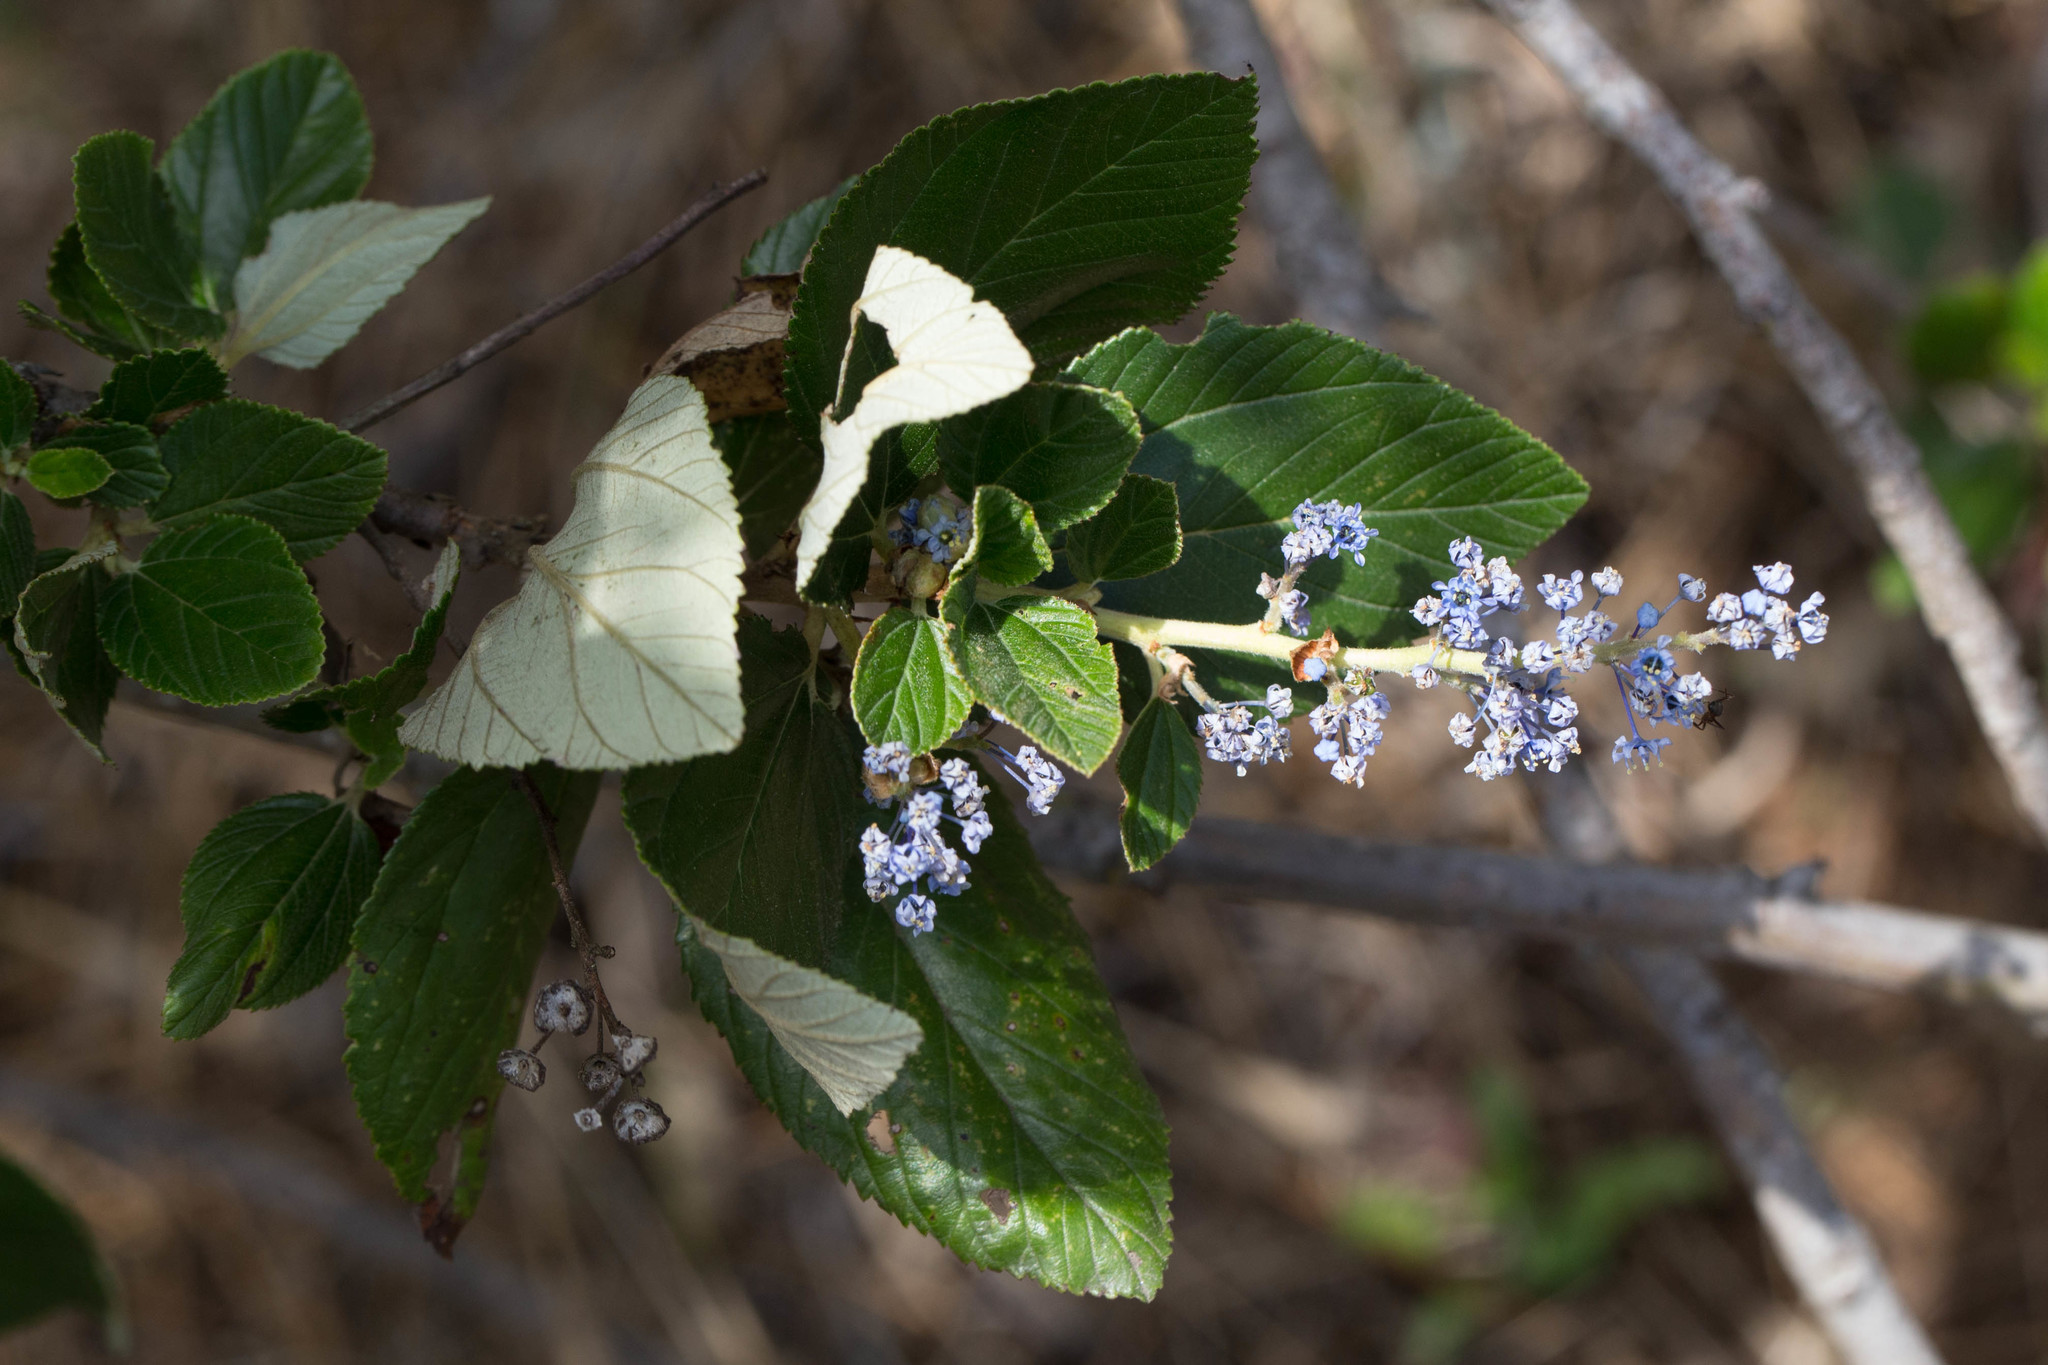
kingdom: Plantae
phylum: Tracheophyta
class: Magnoliopsida
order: Rosales
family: Rhamnaceae
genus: Ceanothus
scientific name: Ceanothus arboreus
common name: Catalina mountain-lilac
